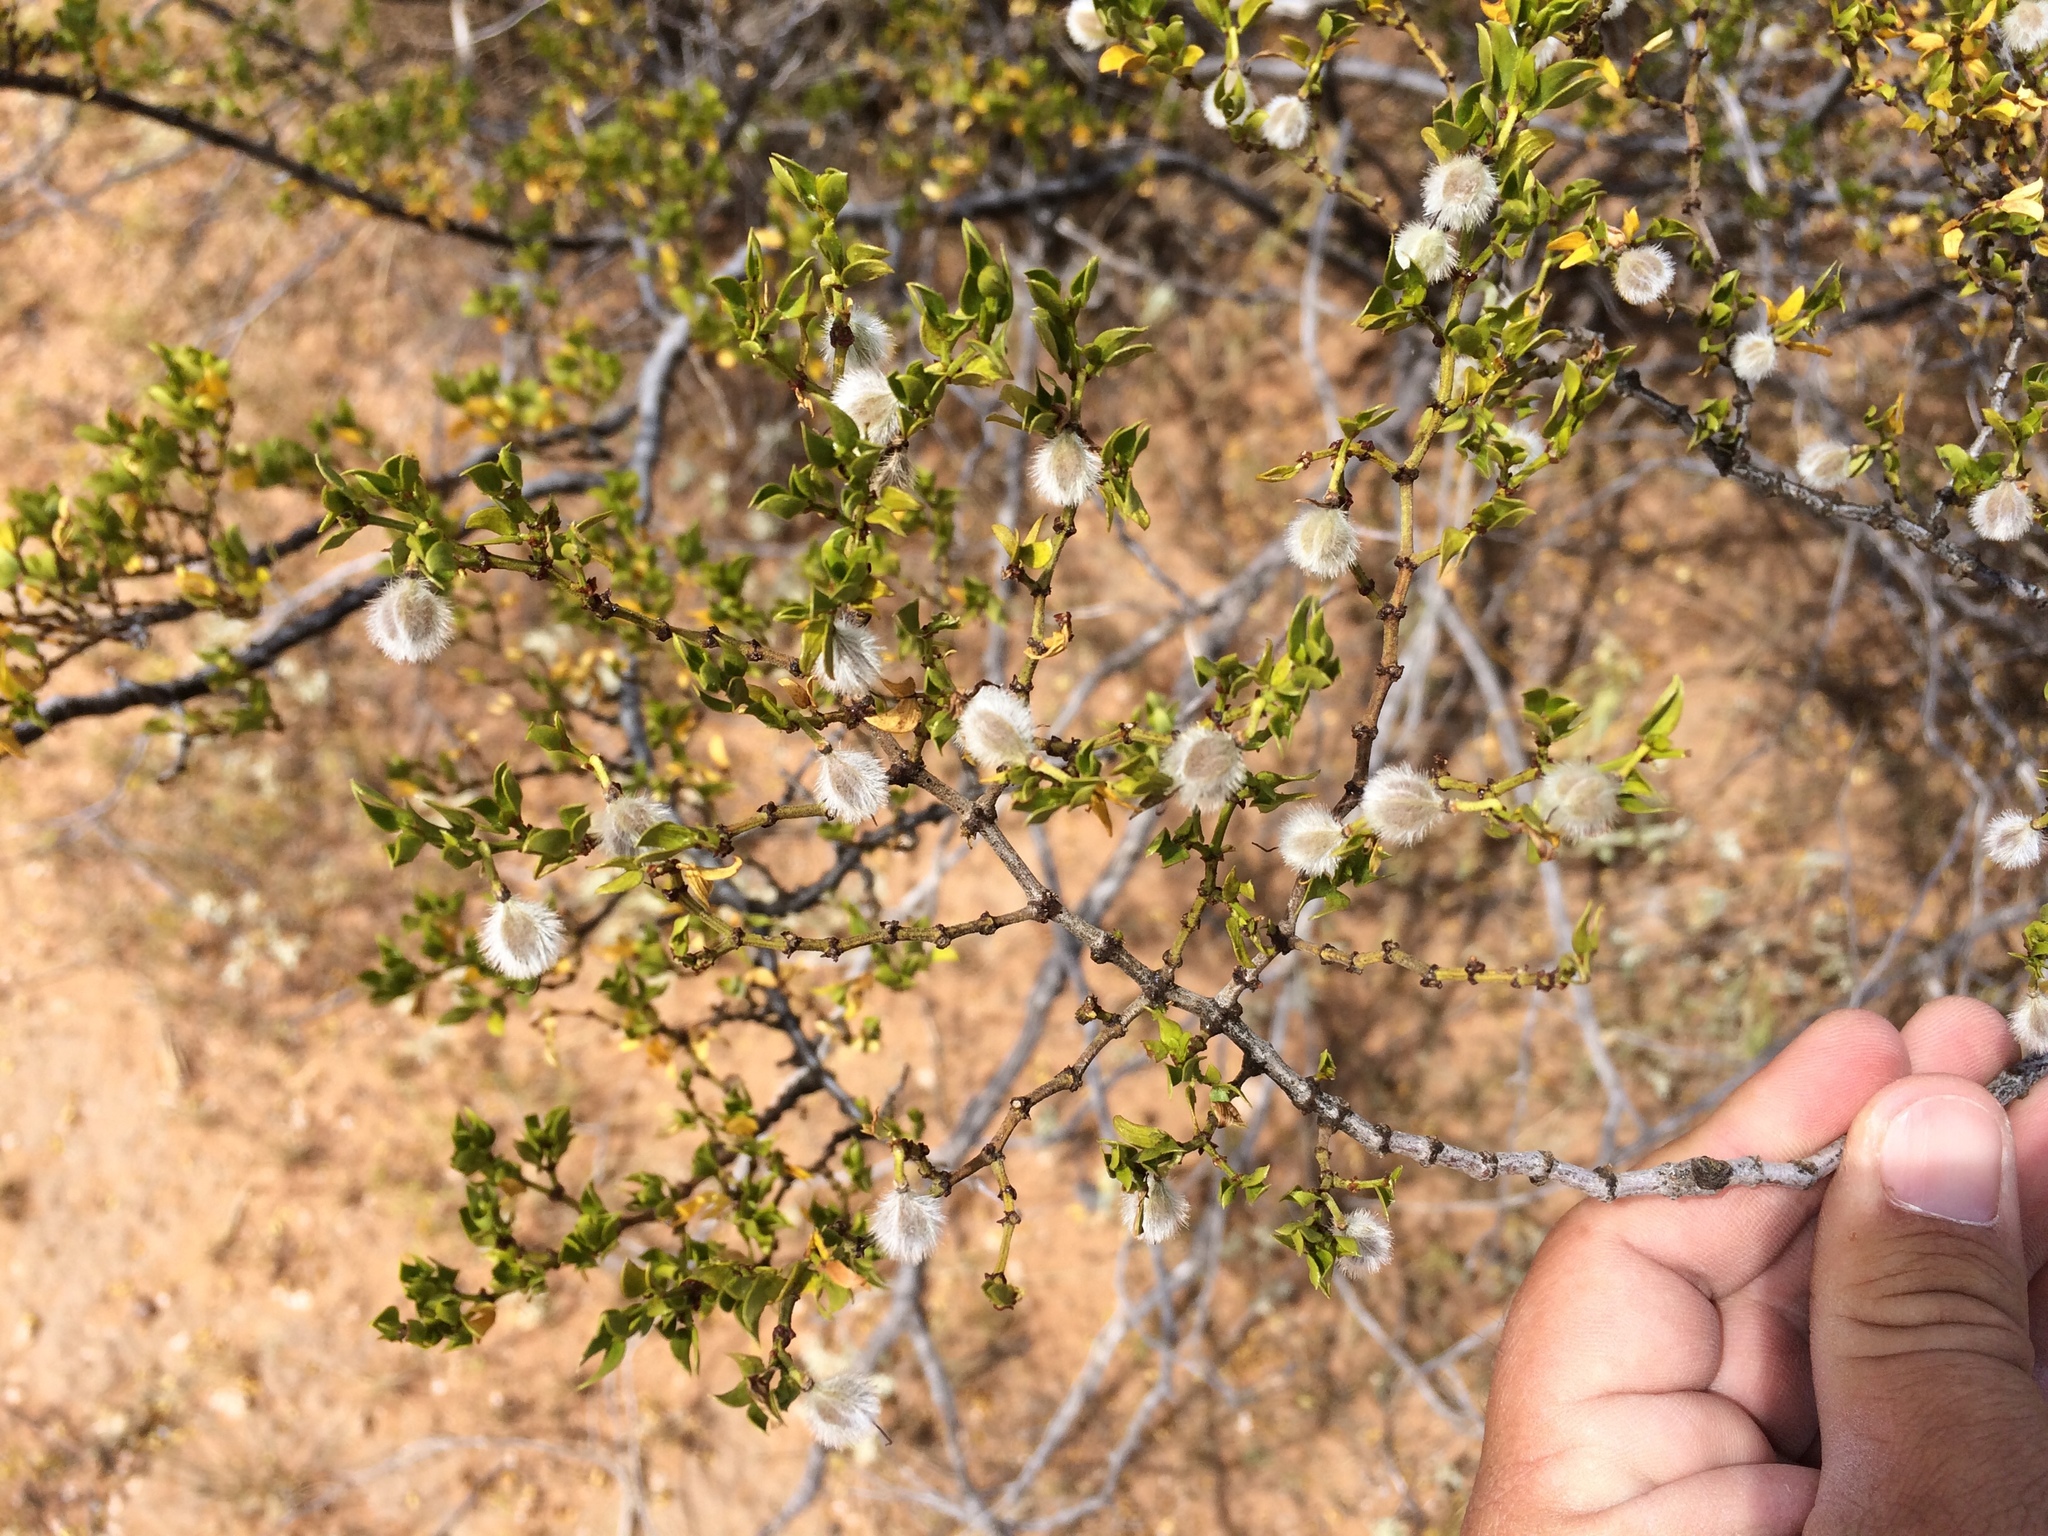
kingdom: Plantae
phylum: Tracheophyta
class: Magnoliopsida
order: Zygophyllales
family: Zygophyllaceae
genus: Larrea
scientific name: Larrea tridentata
